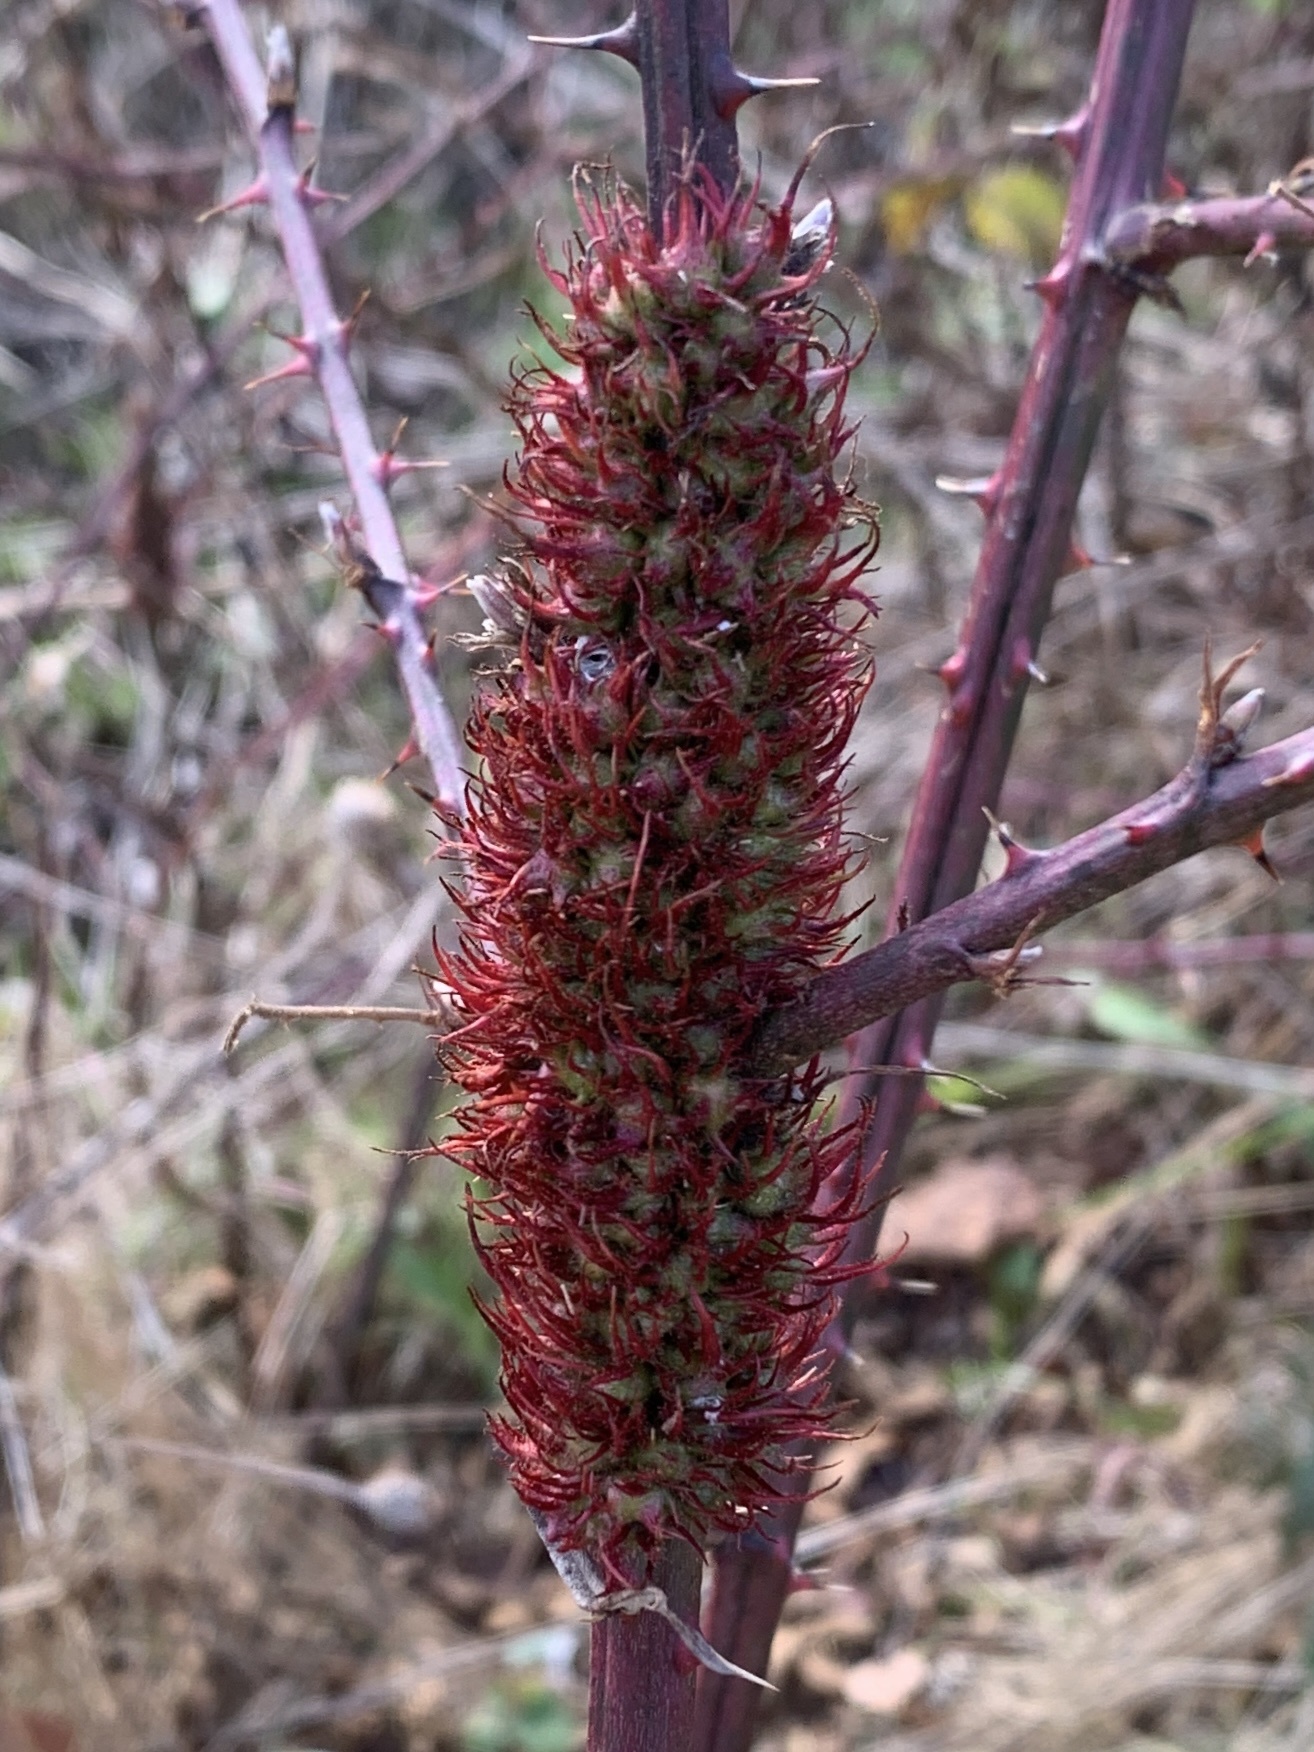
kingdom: Animalia
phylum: Arthropoda
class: Insecta
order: Hymenoptera
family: Cynipidae
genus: Diastrophus
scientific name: Diastrophus
